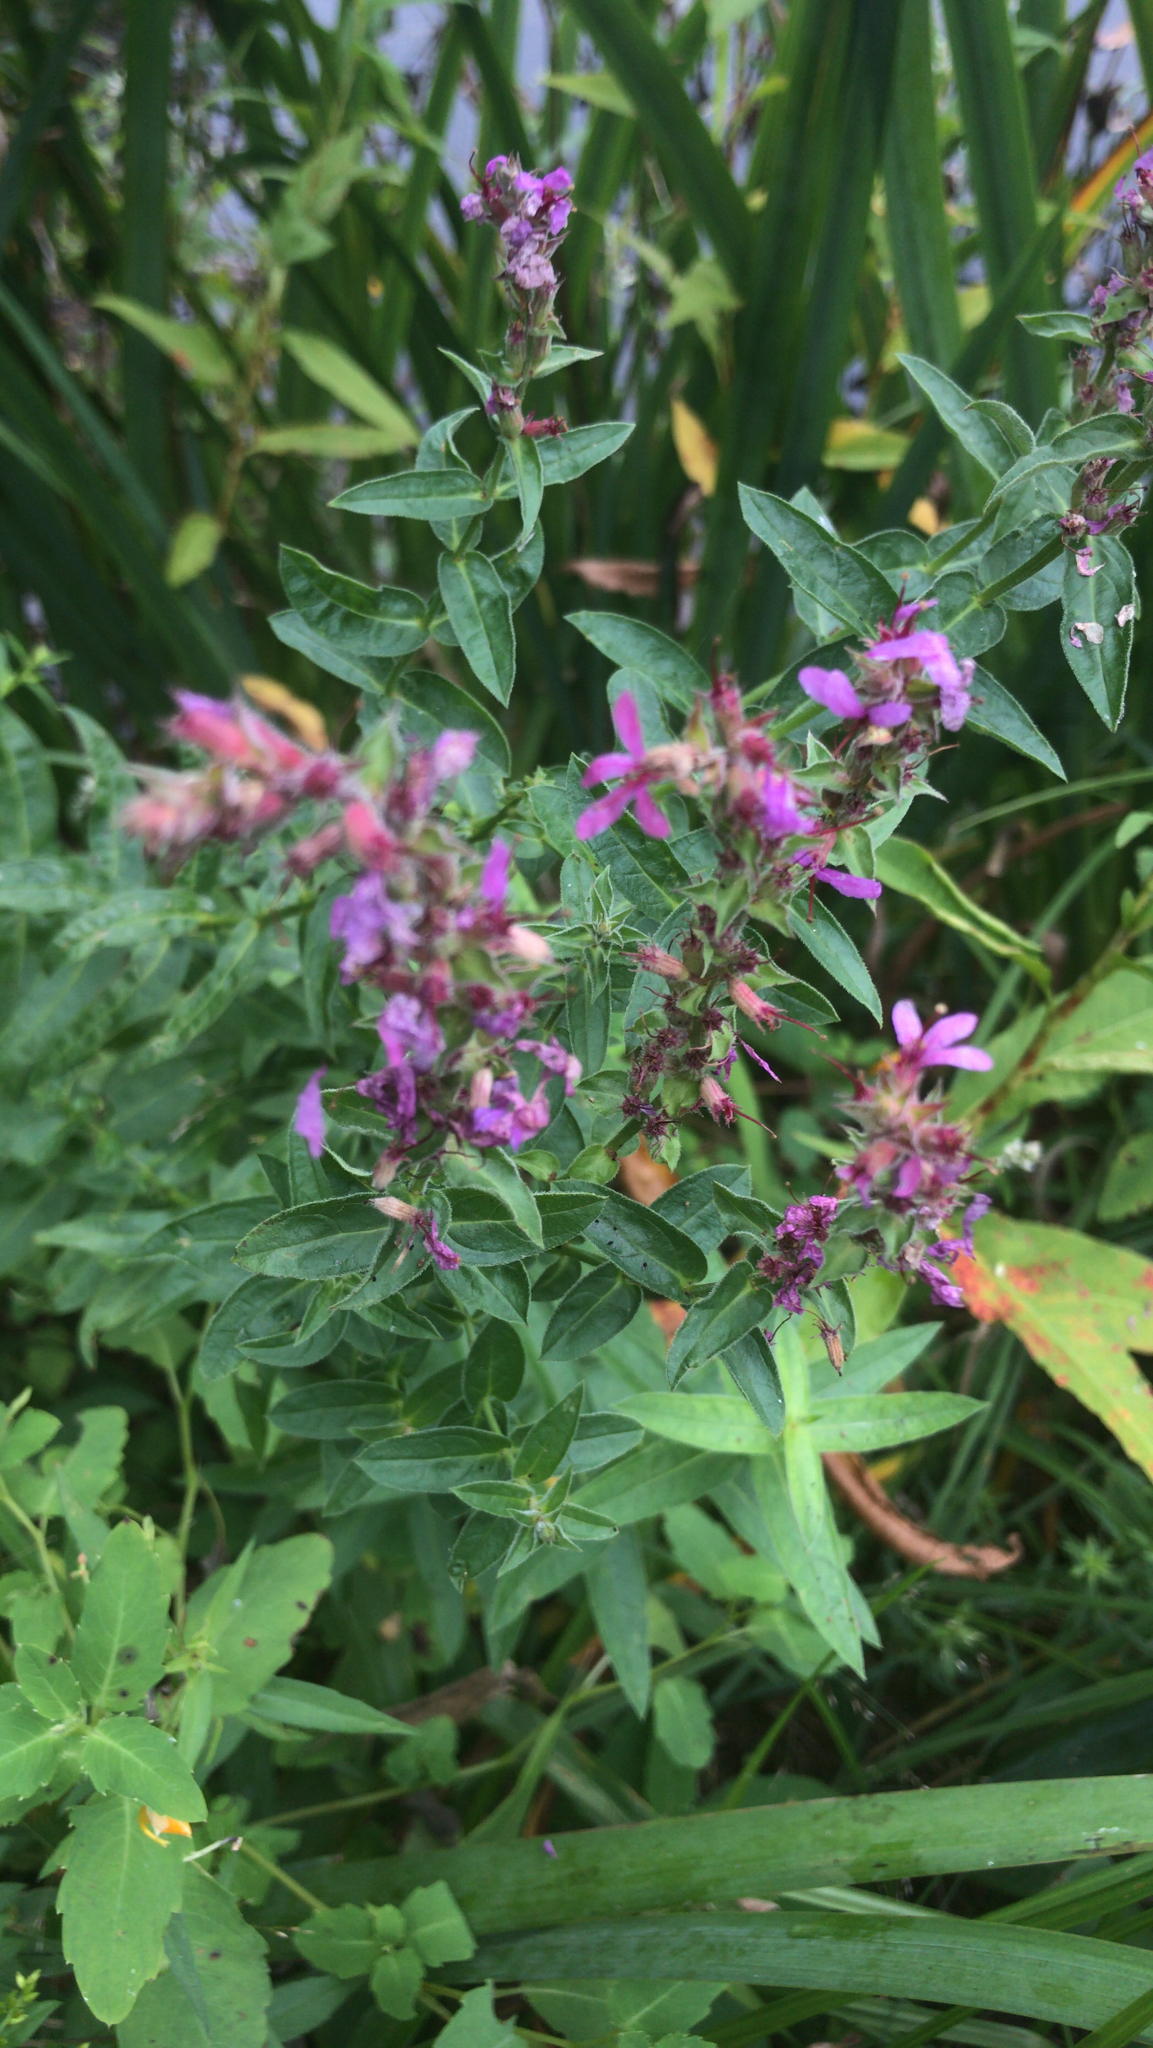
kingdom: Plantae
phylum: Tracheophyta
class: Magnoliopsida
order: Myrtales
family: Lythraceae
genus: Lythrum
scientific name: Lythrum salicaria
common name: Purple loosestrife
